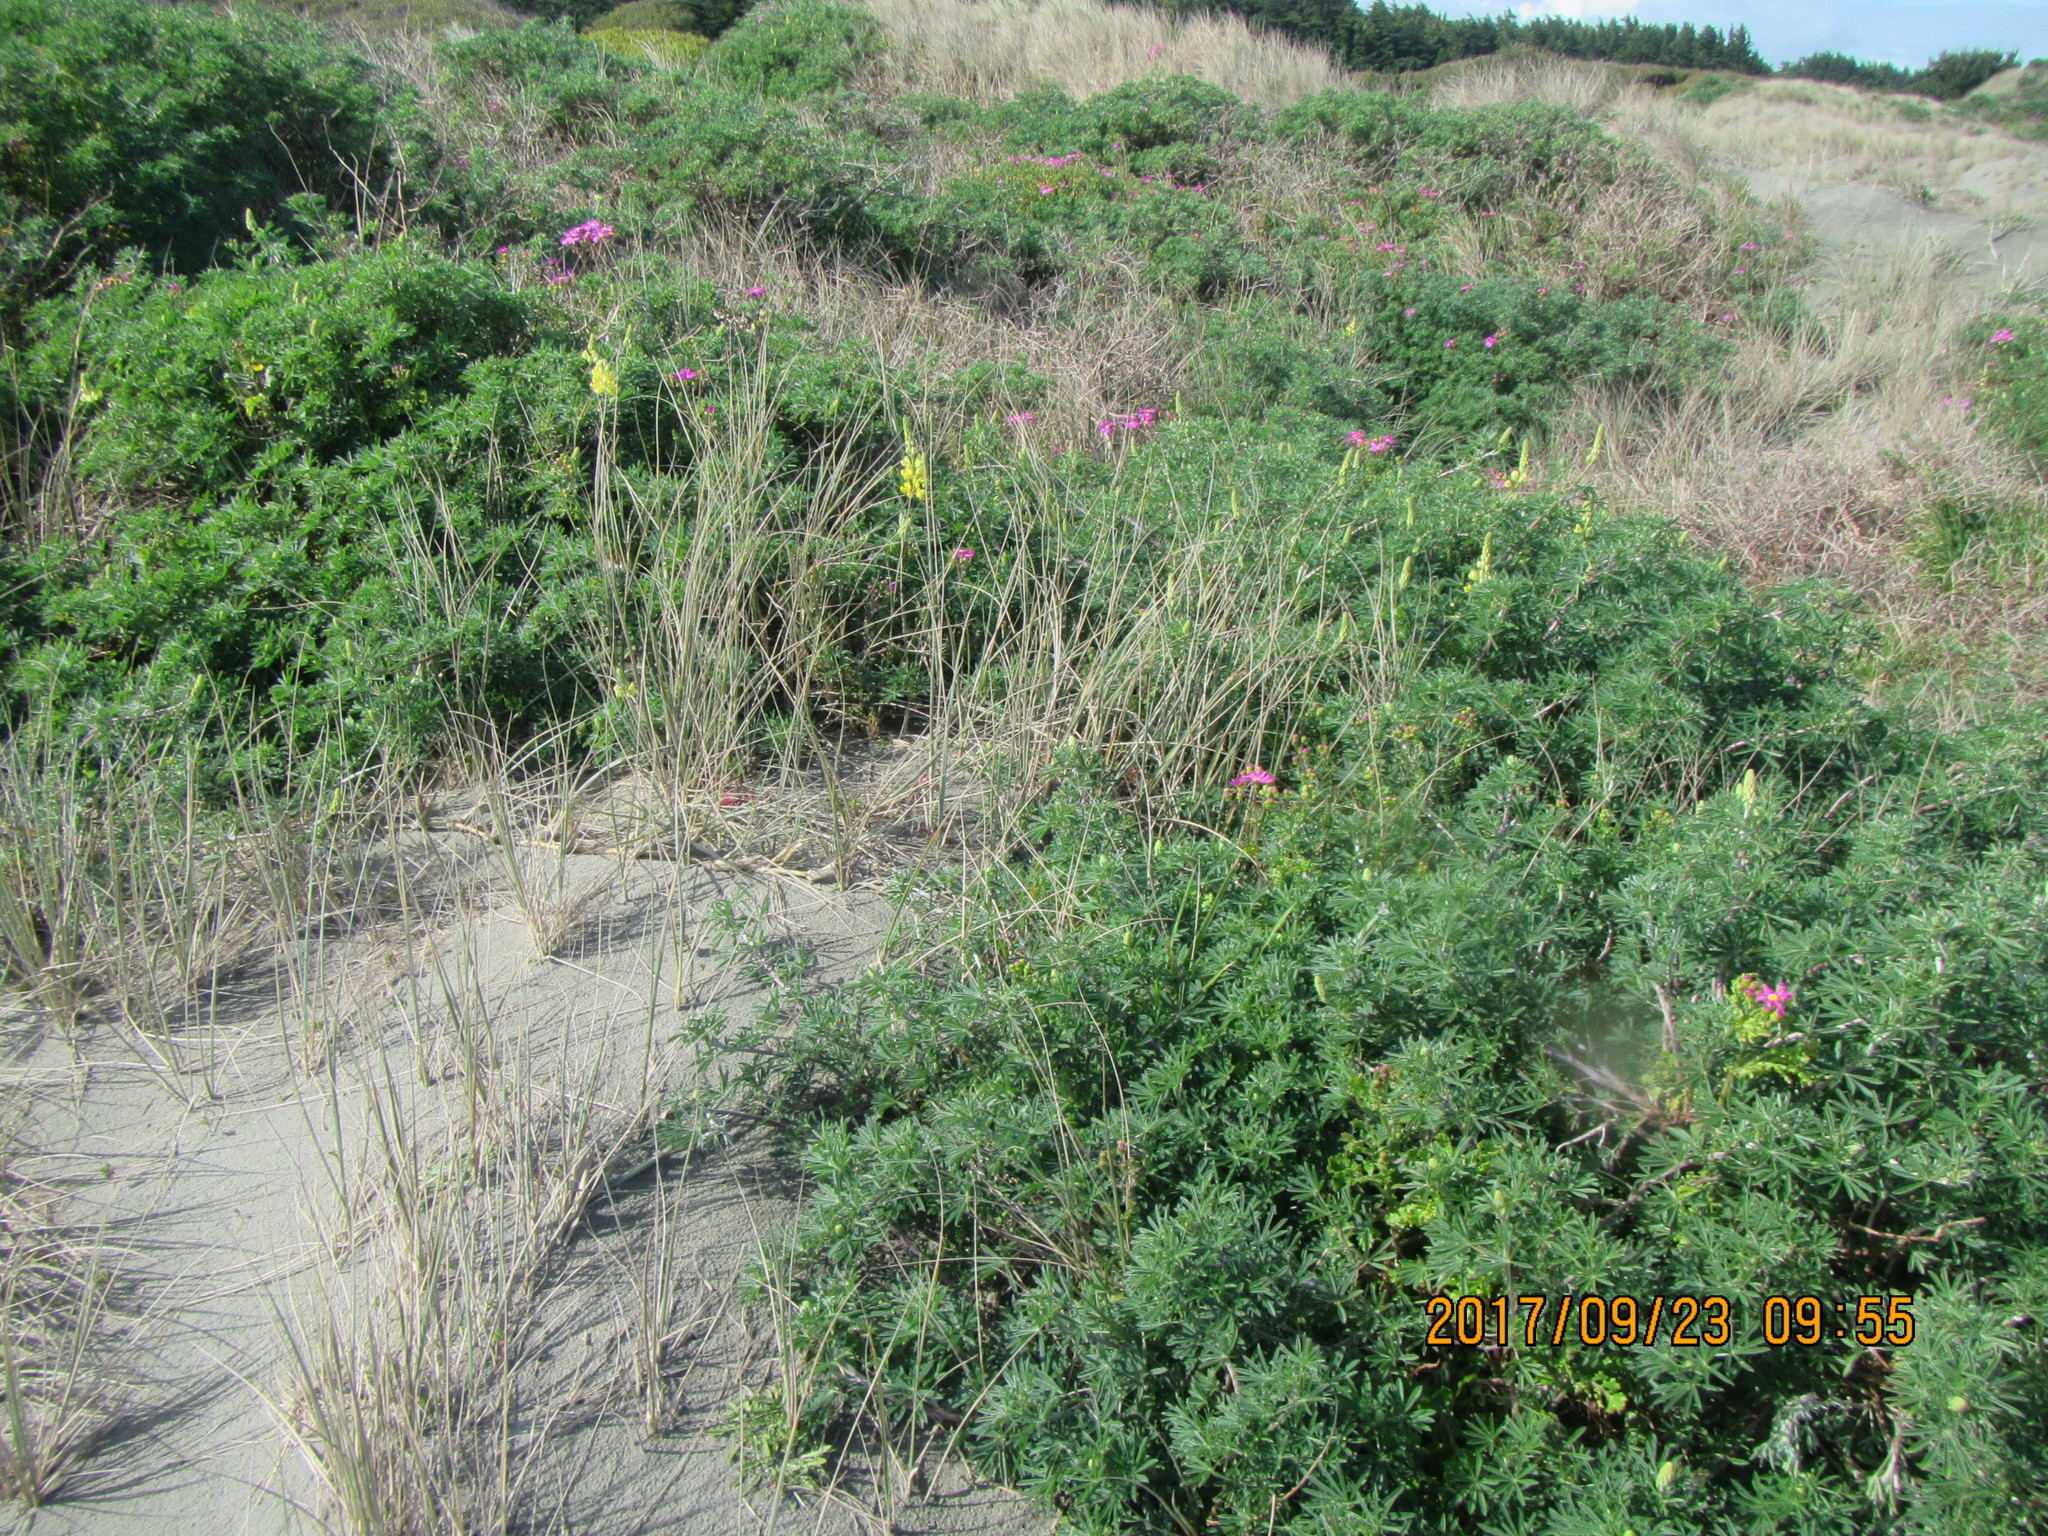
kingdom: Plantae
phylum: Tracheophyta
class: Magnoliopsida
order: Fabales
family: Fabaceae
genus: Lupinus
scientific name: Lupinus arboreus
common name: Yellow bush lupine
